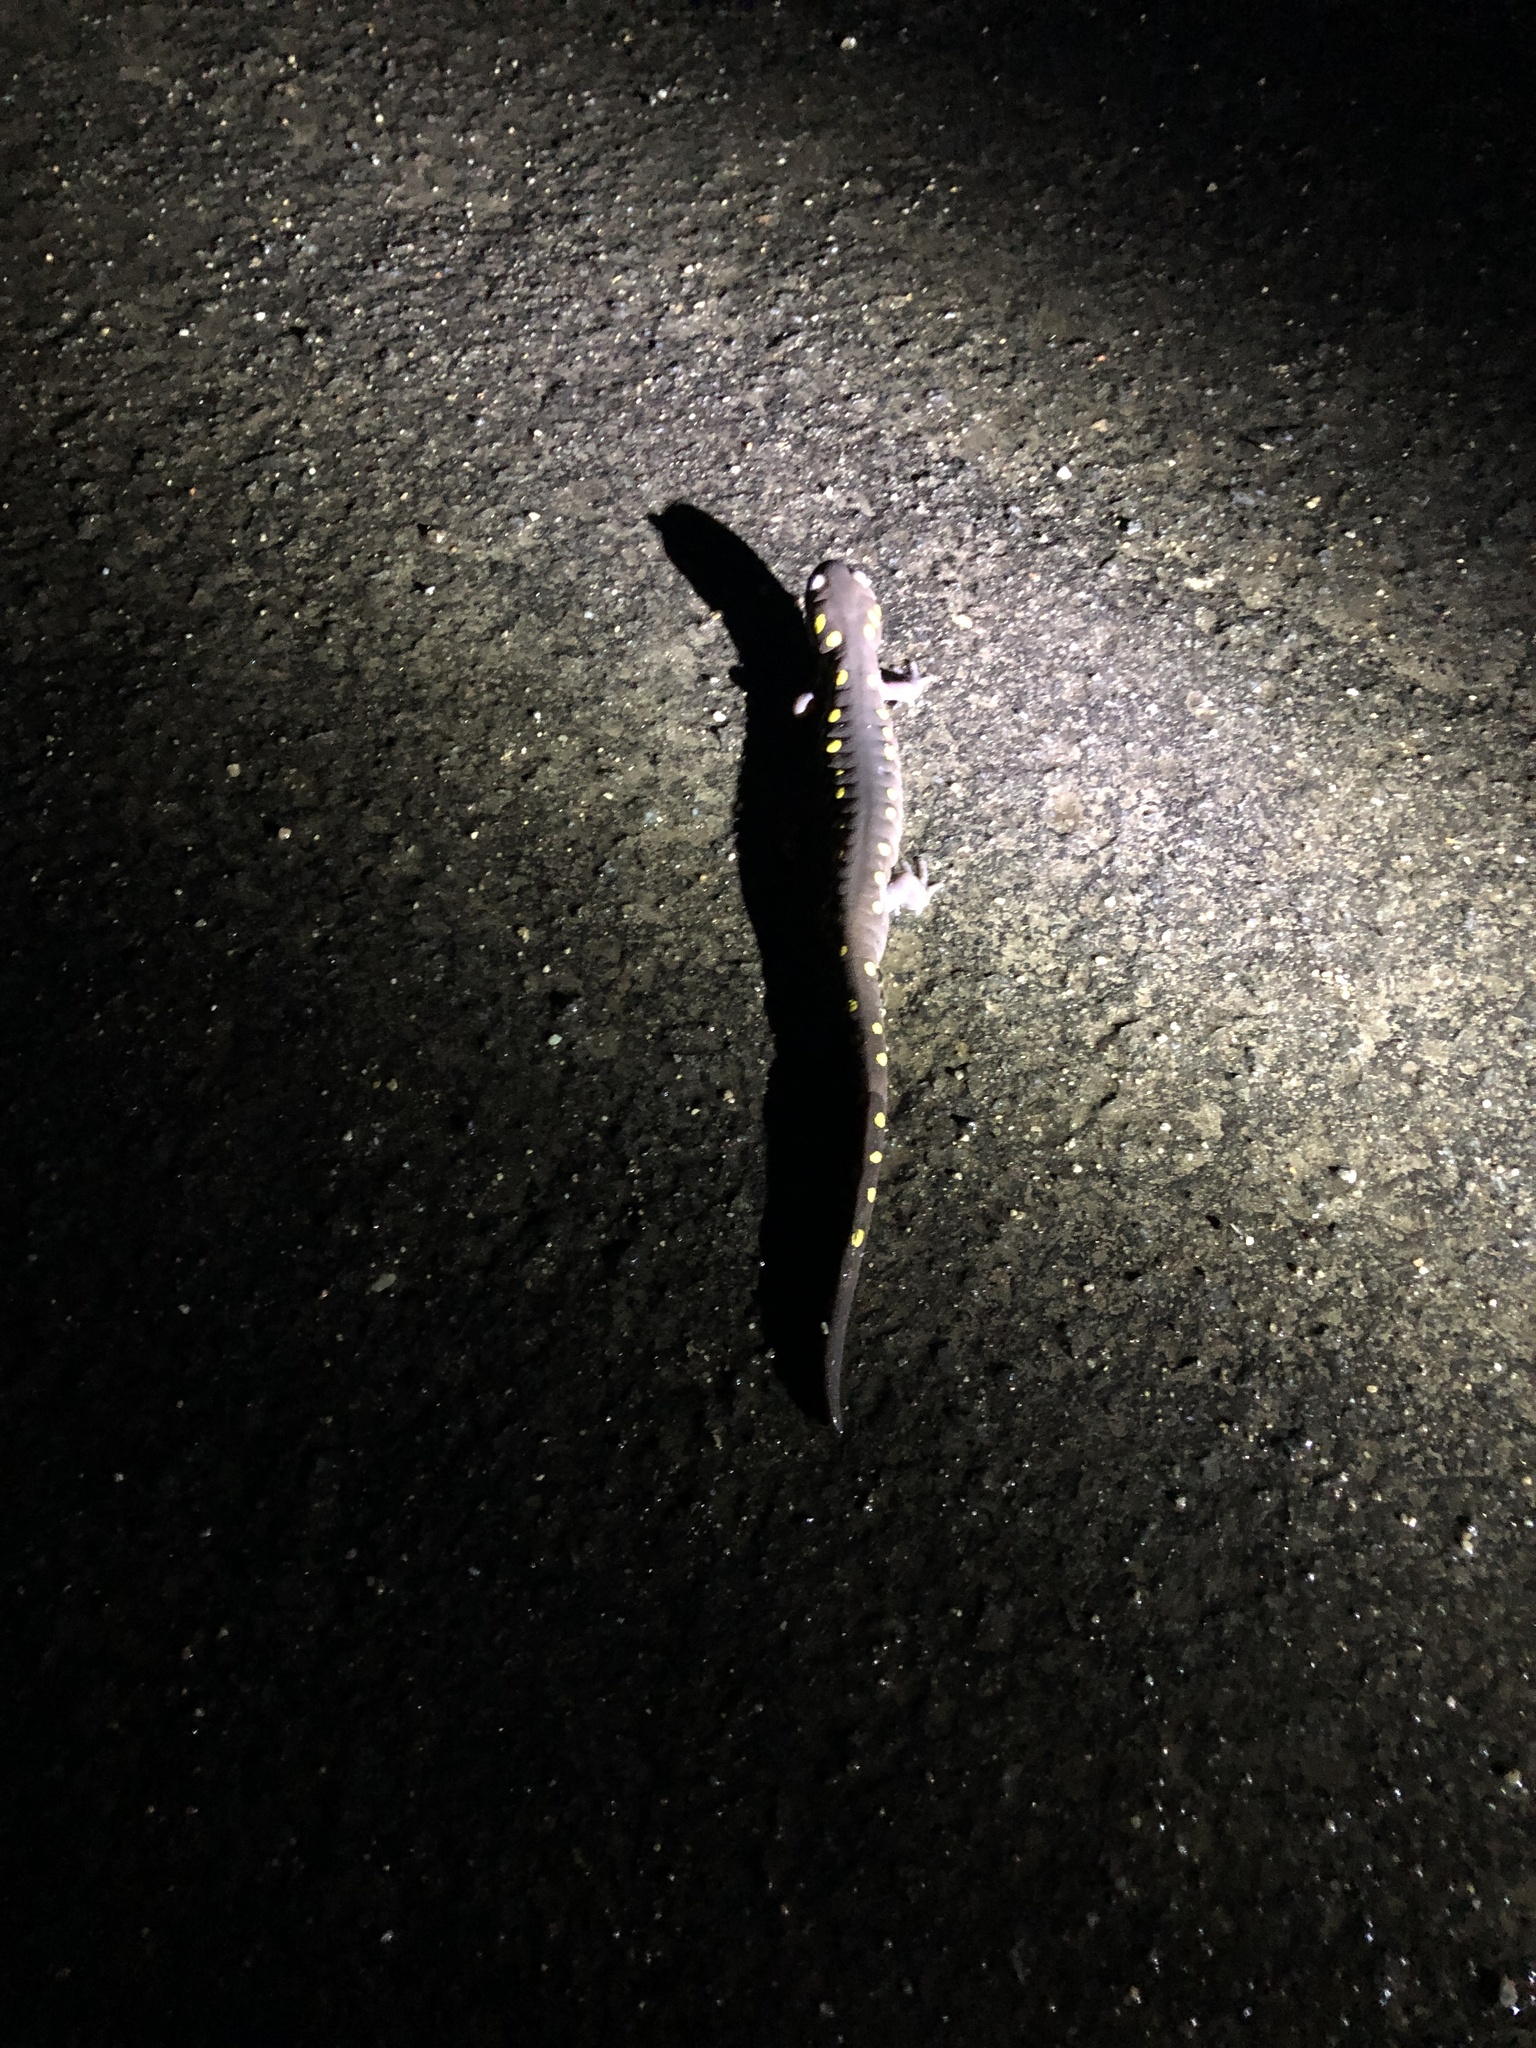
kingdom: Animalia
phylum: Chordata
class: Amphibia
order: Caudata
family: Ambystomatidae
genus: Ambystoma
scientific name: Ambystoma maculatum
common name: Spotted salamander
